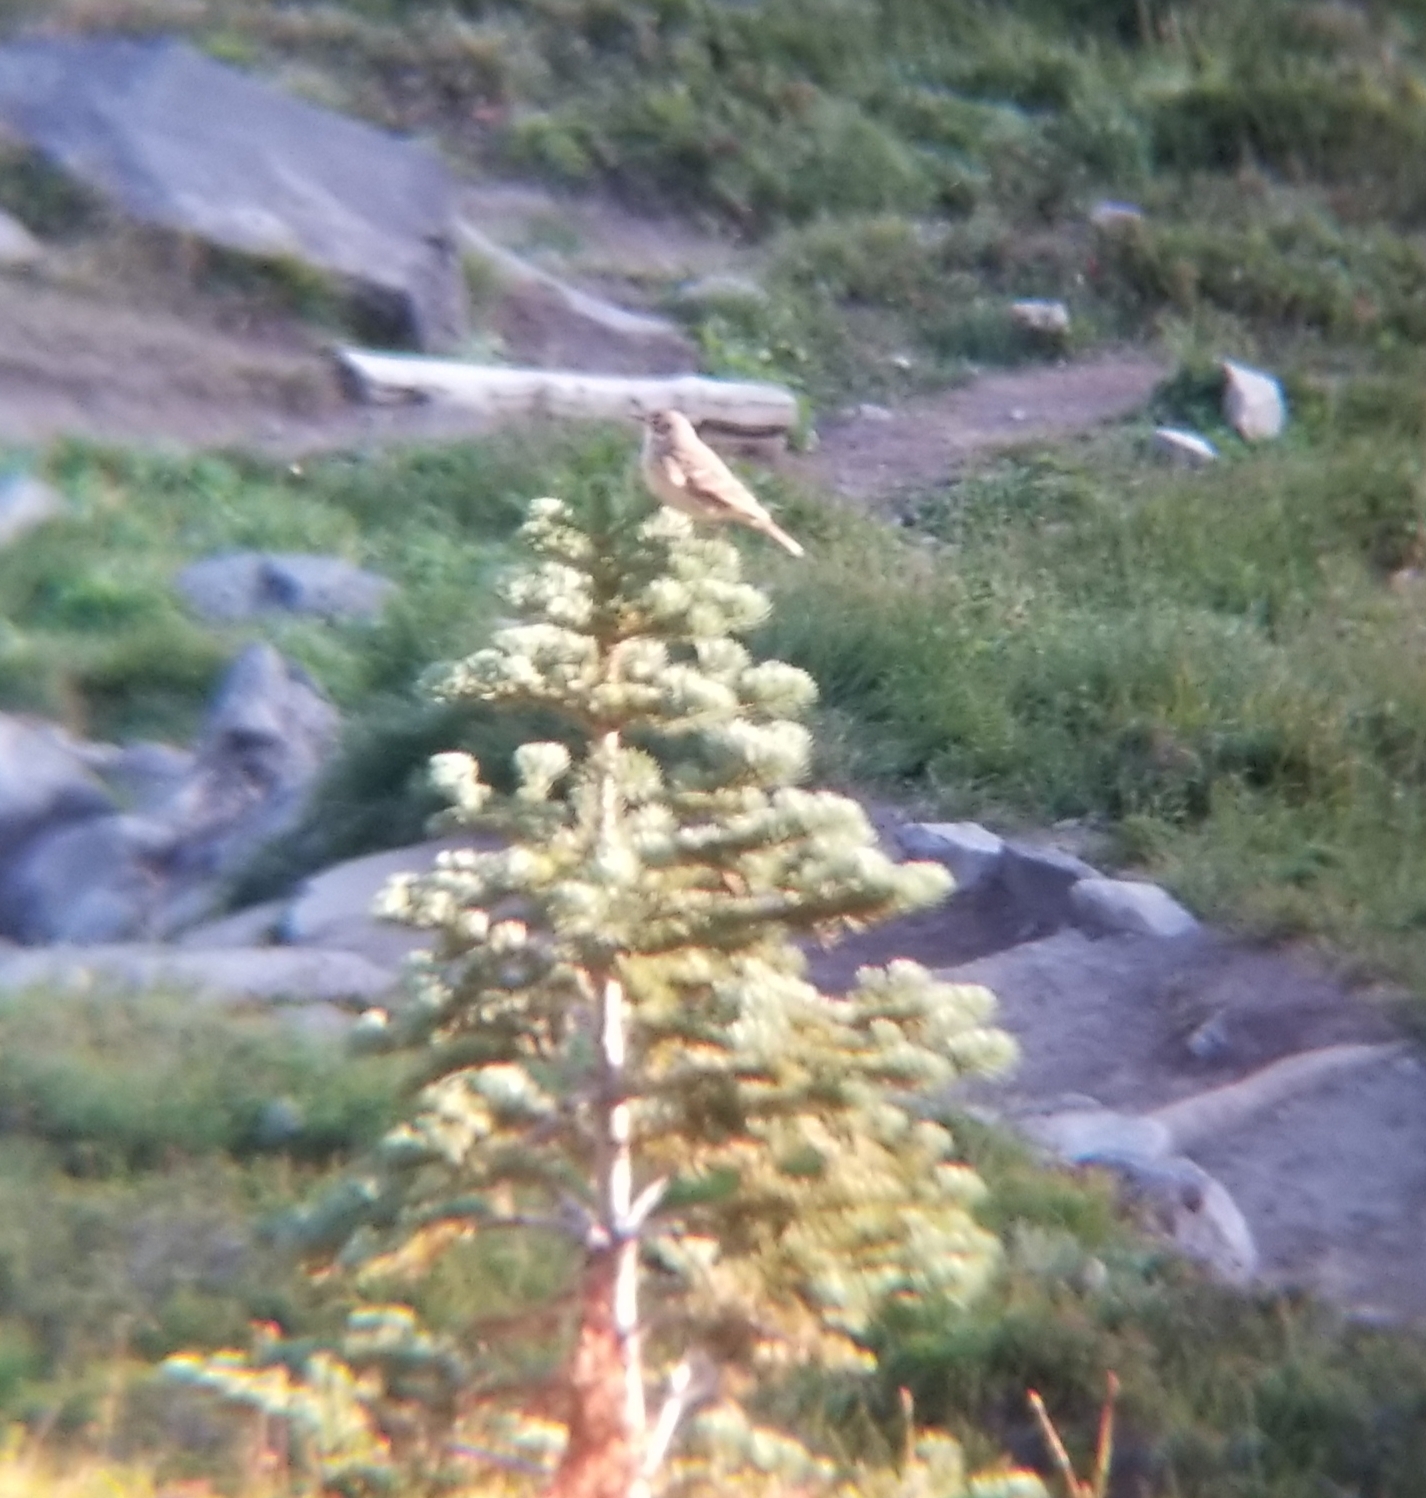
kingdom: Animalia
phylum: Chordata
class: Aves
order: Passeriformes
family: Motacillidae
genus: Anthus
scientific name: Anthus rubescens
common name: Buff-bellied pipit
